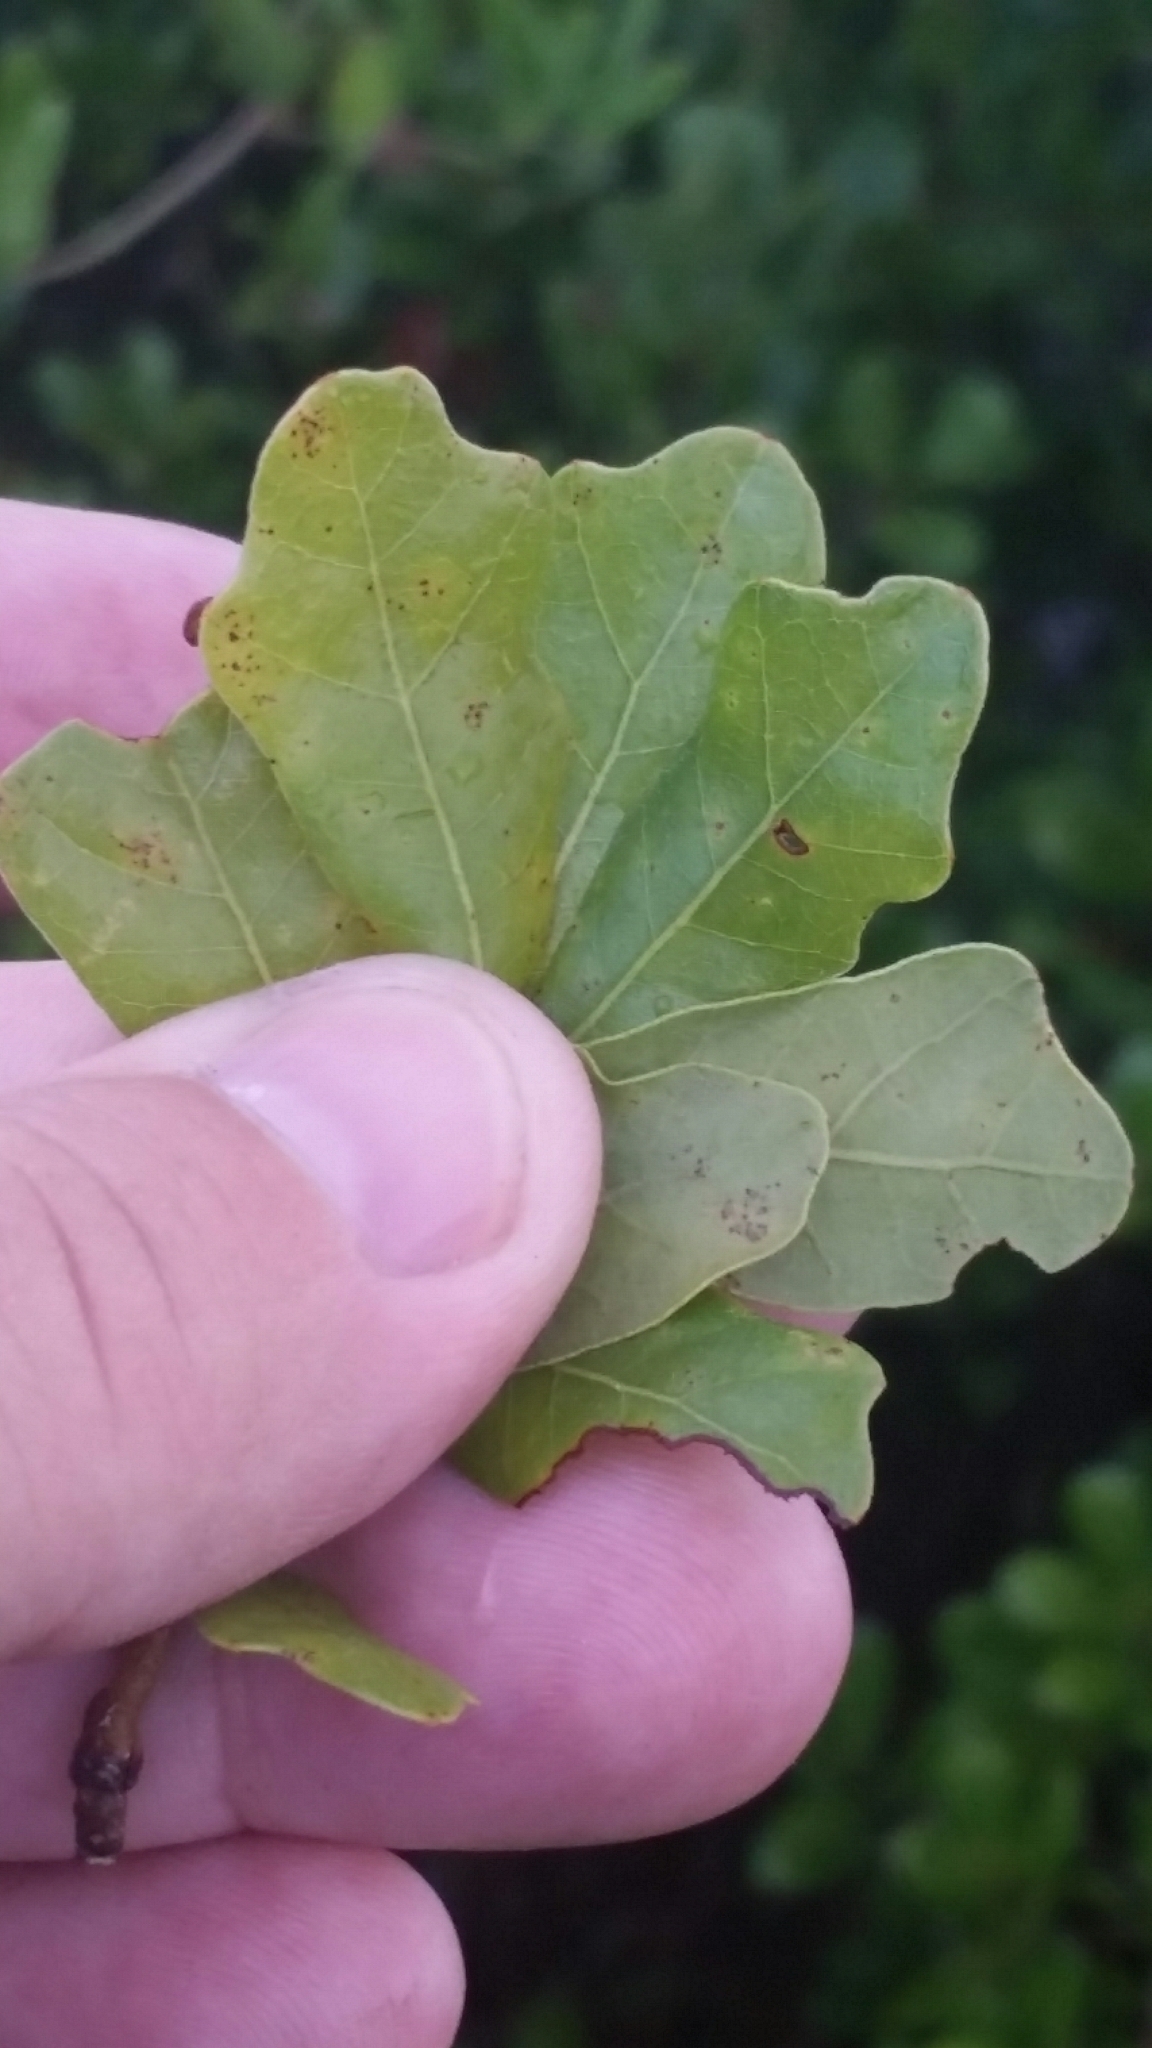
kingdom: Plantae
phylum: Tracheophyta
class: Magnoliopsida
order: Fagales
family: Fagaceae
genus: Quercus
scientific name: Quercus chapmanii
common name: Chapman oak
